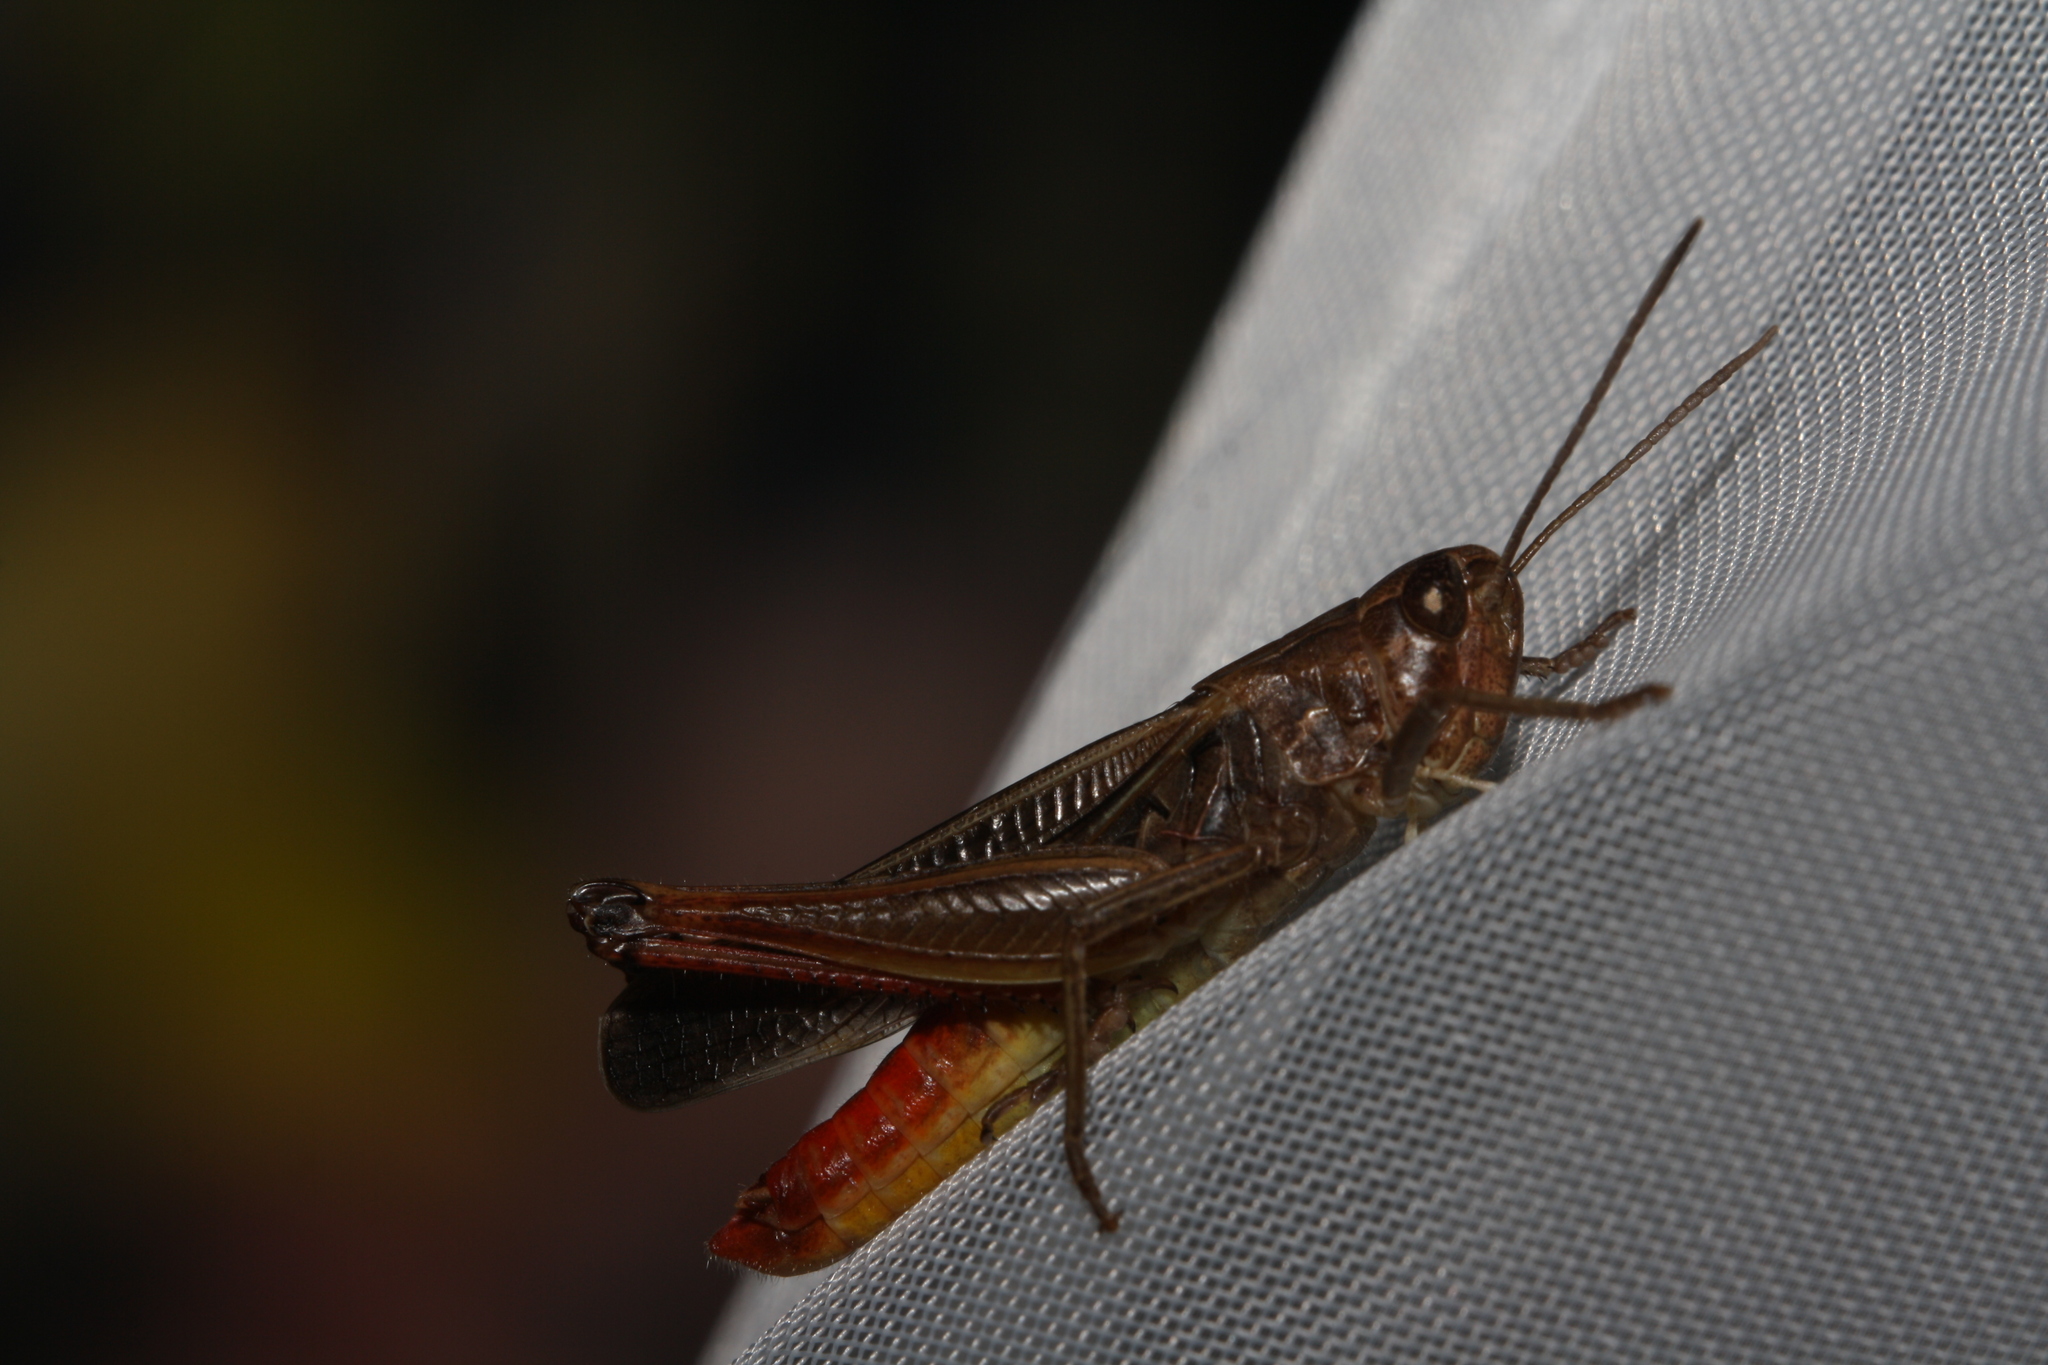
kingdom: Animalia
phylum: Arthropoda
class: Insecta
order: Orthoptera
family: Acrididae
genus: Stenobothrus
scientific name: Stenobothrus lineatus
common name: Stripe-winged grasshopper
